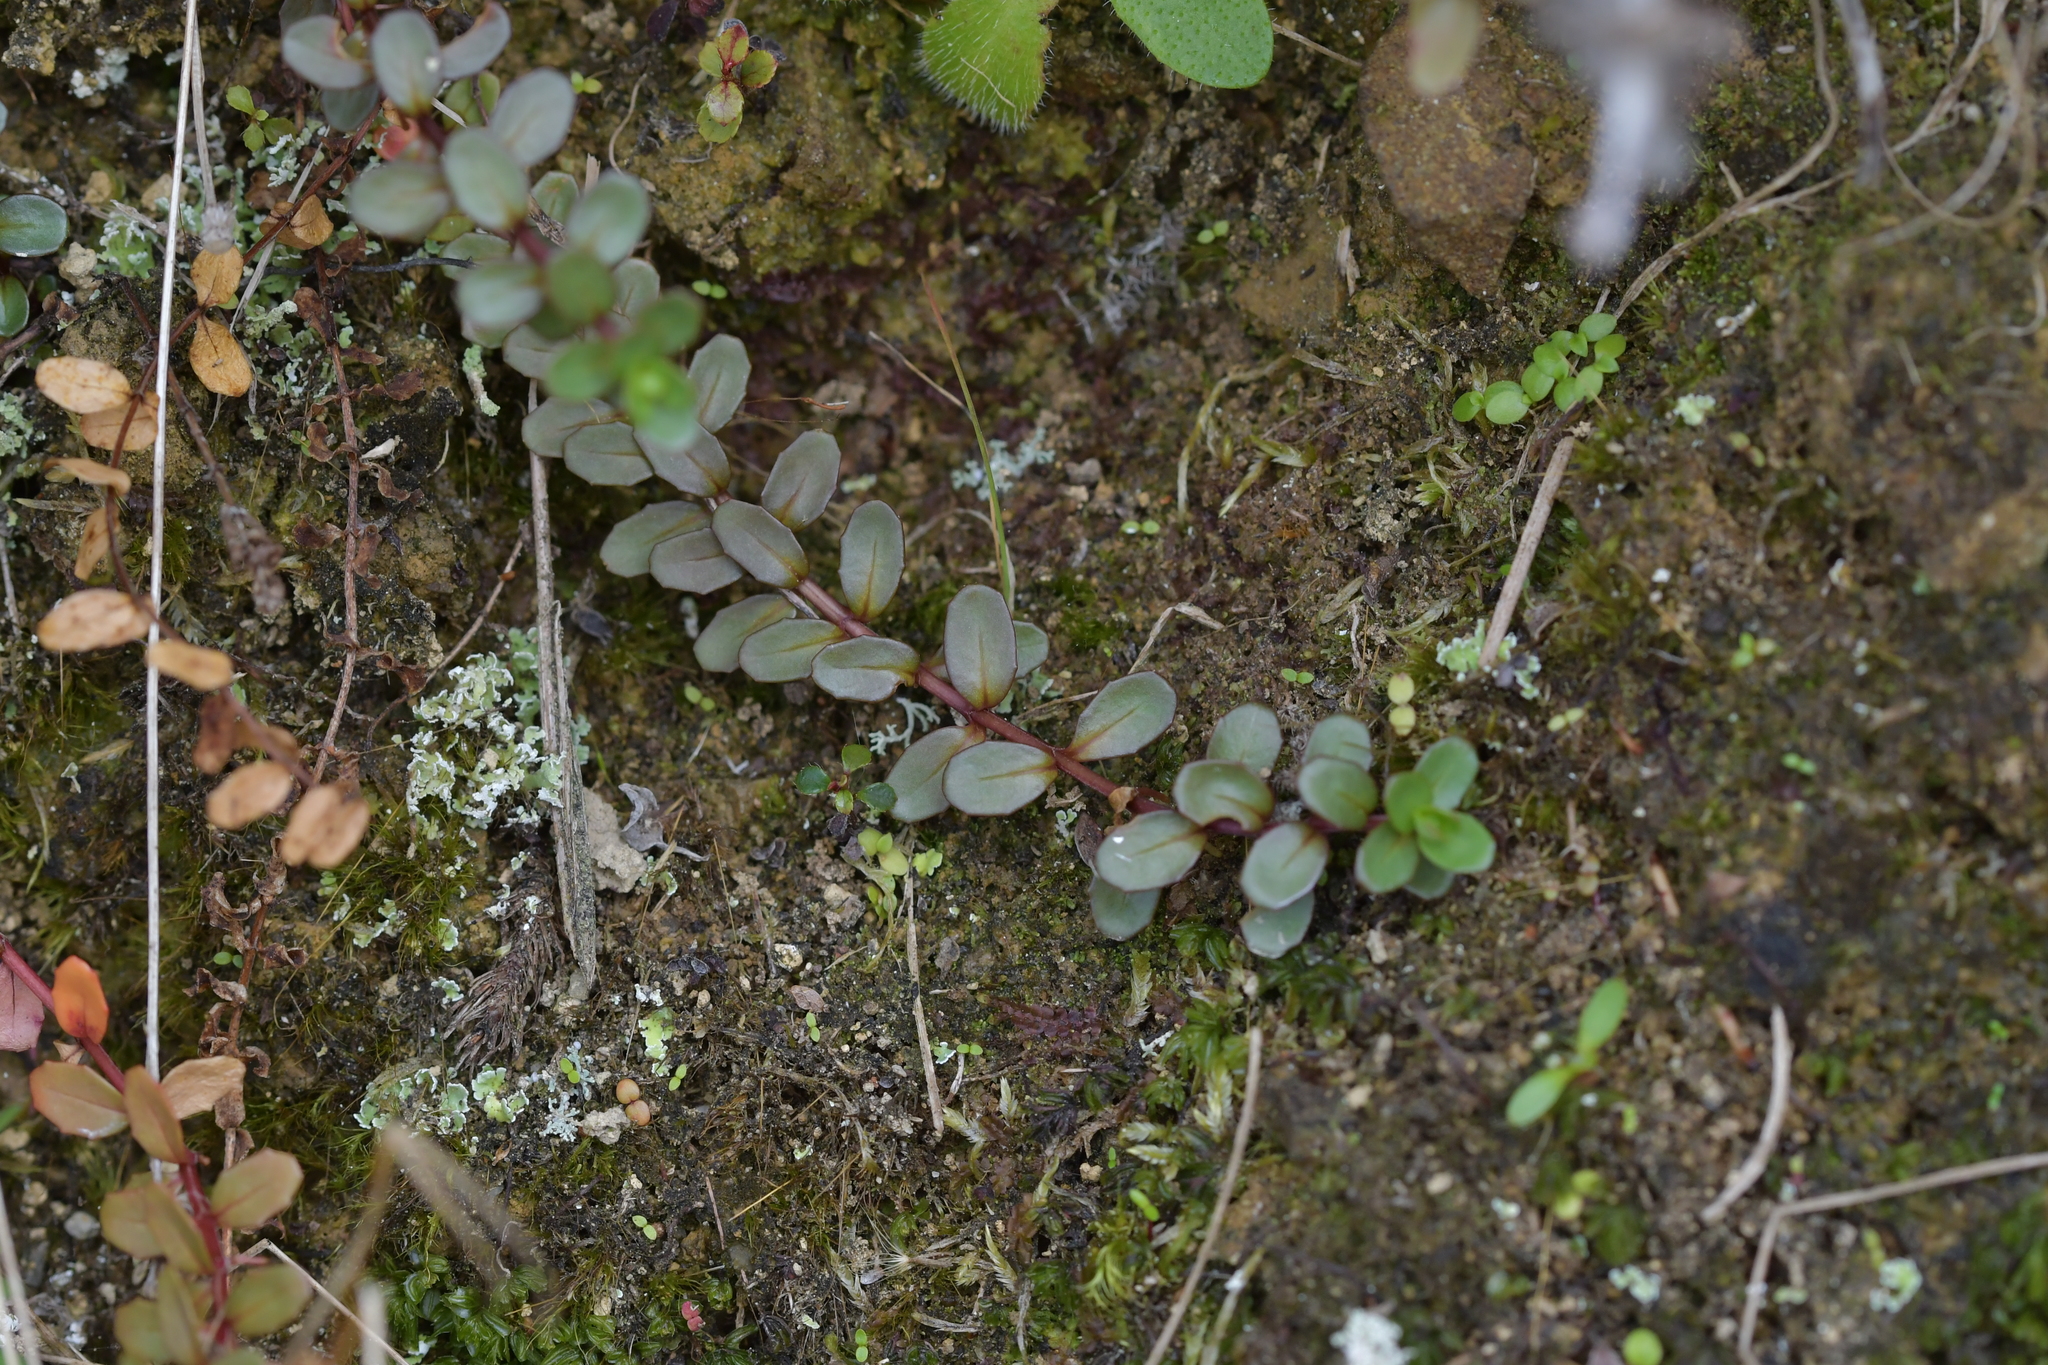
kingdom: Plantae
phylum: Tracheophyta
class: Magnoliopsida
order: Myrtales
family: Onagraceae
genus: Epilobium
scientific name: Epilobium alsinoides
